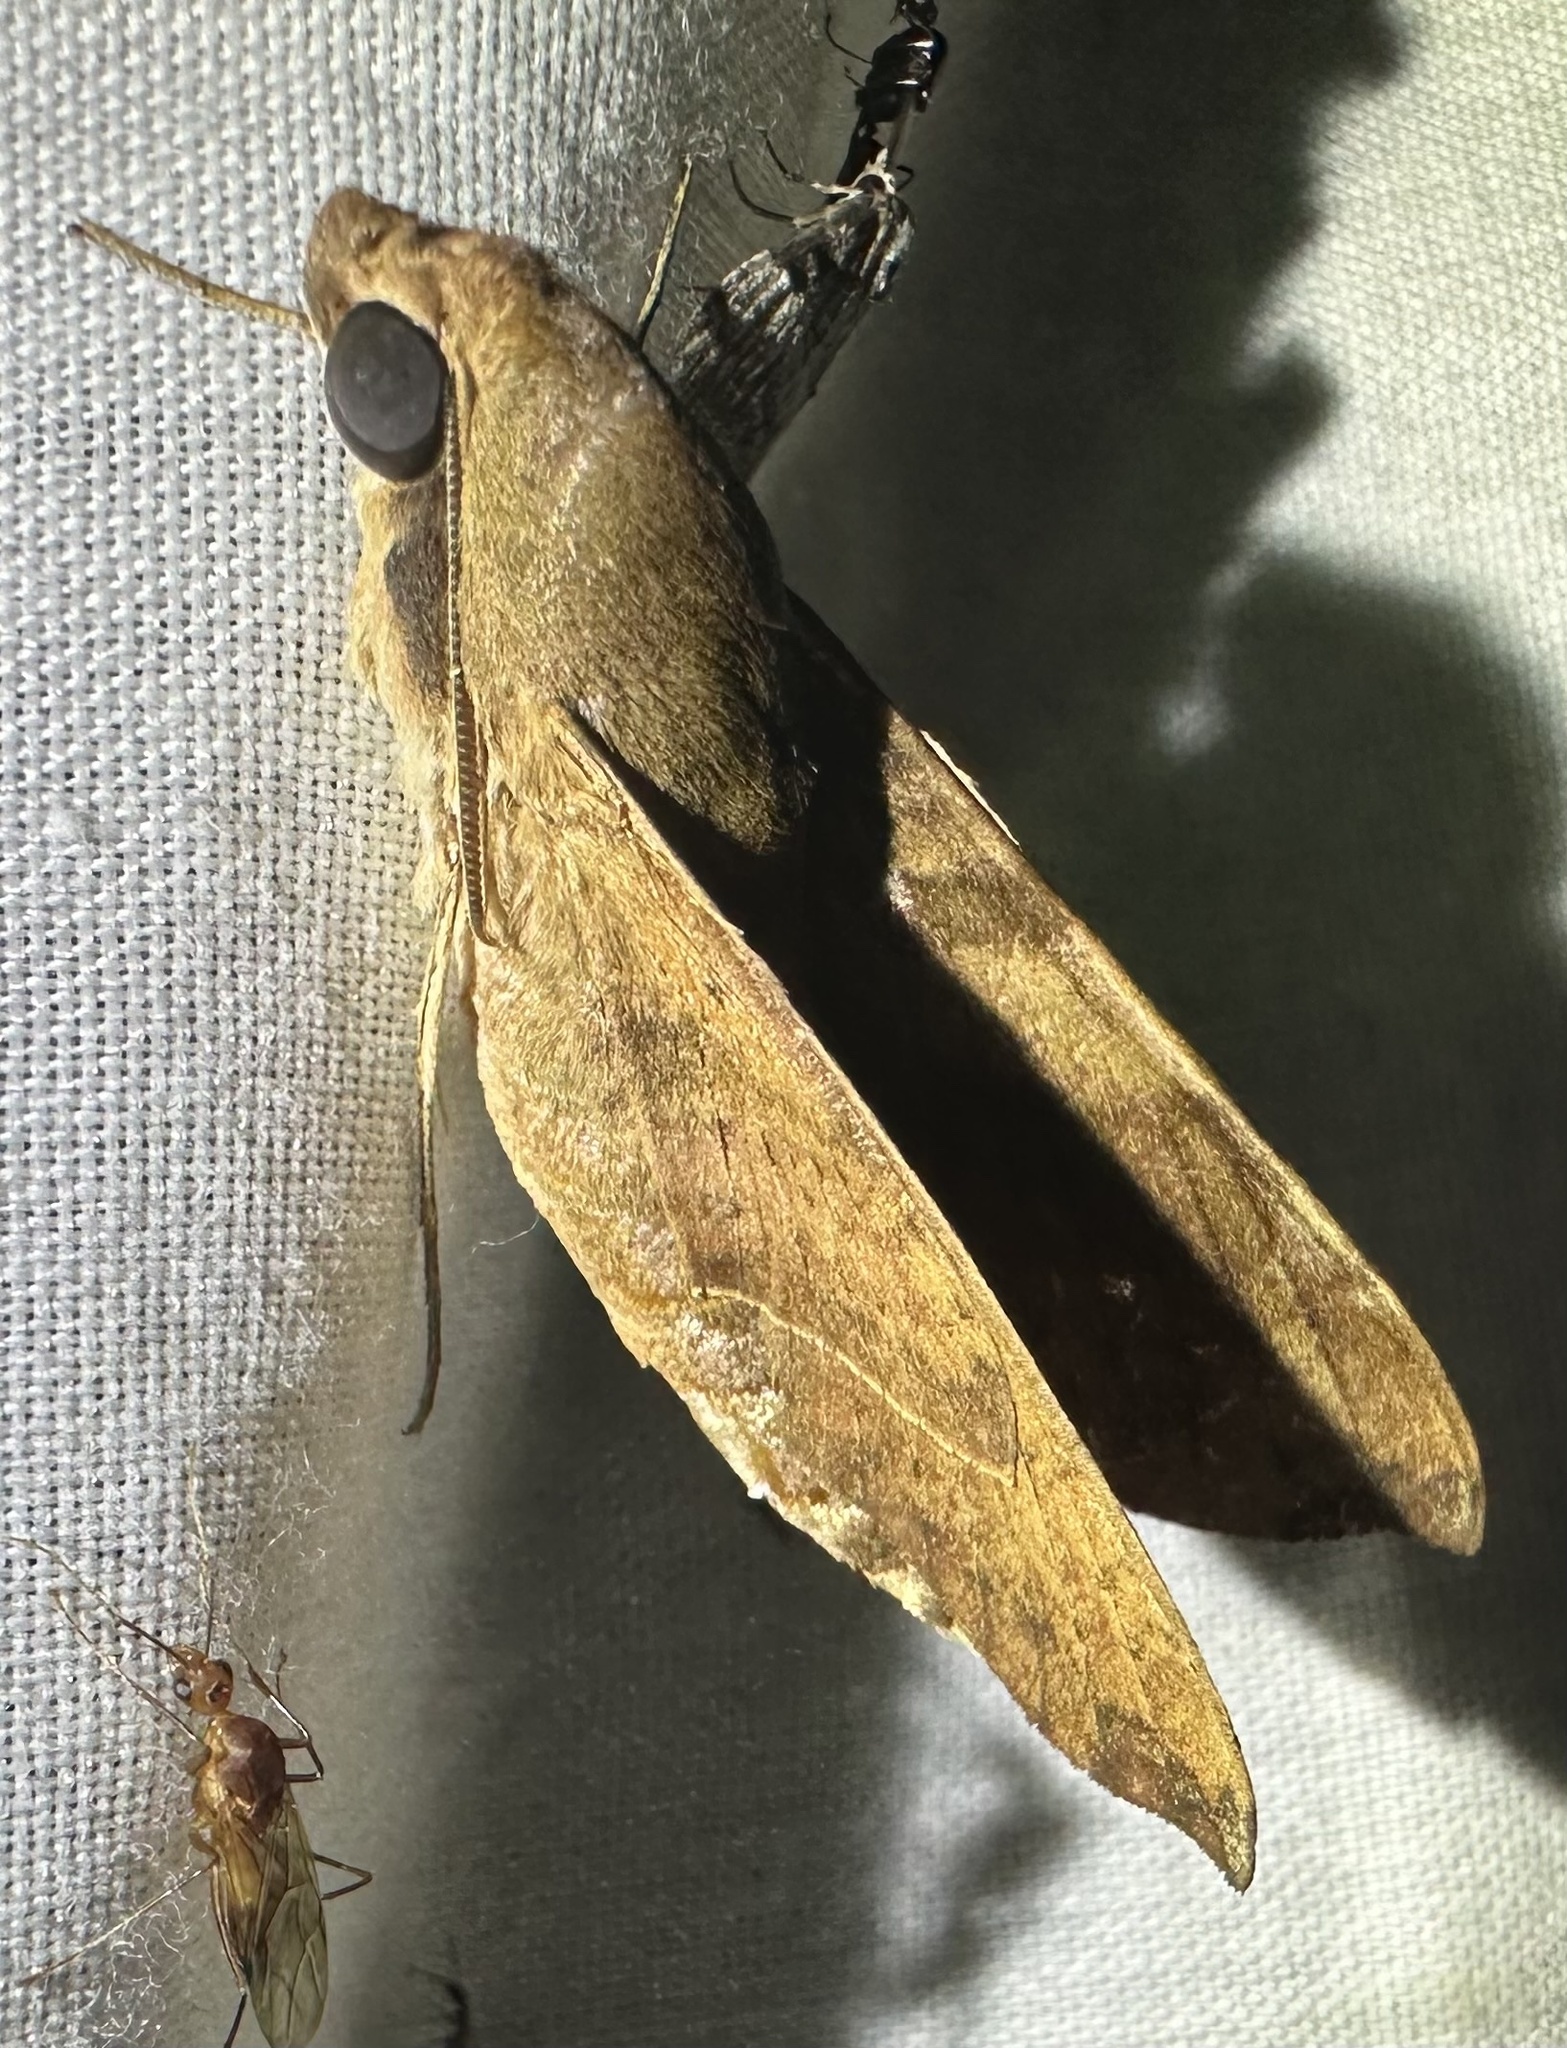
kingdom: Animalia
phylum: Arthropoda
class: Insecta
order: Lepidoptera
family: Sphingidae
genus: Temnora
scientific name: Temnora fumosa
